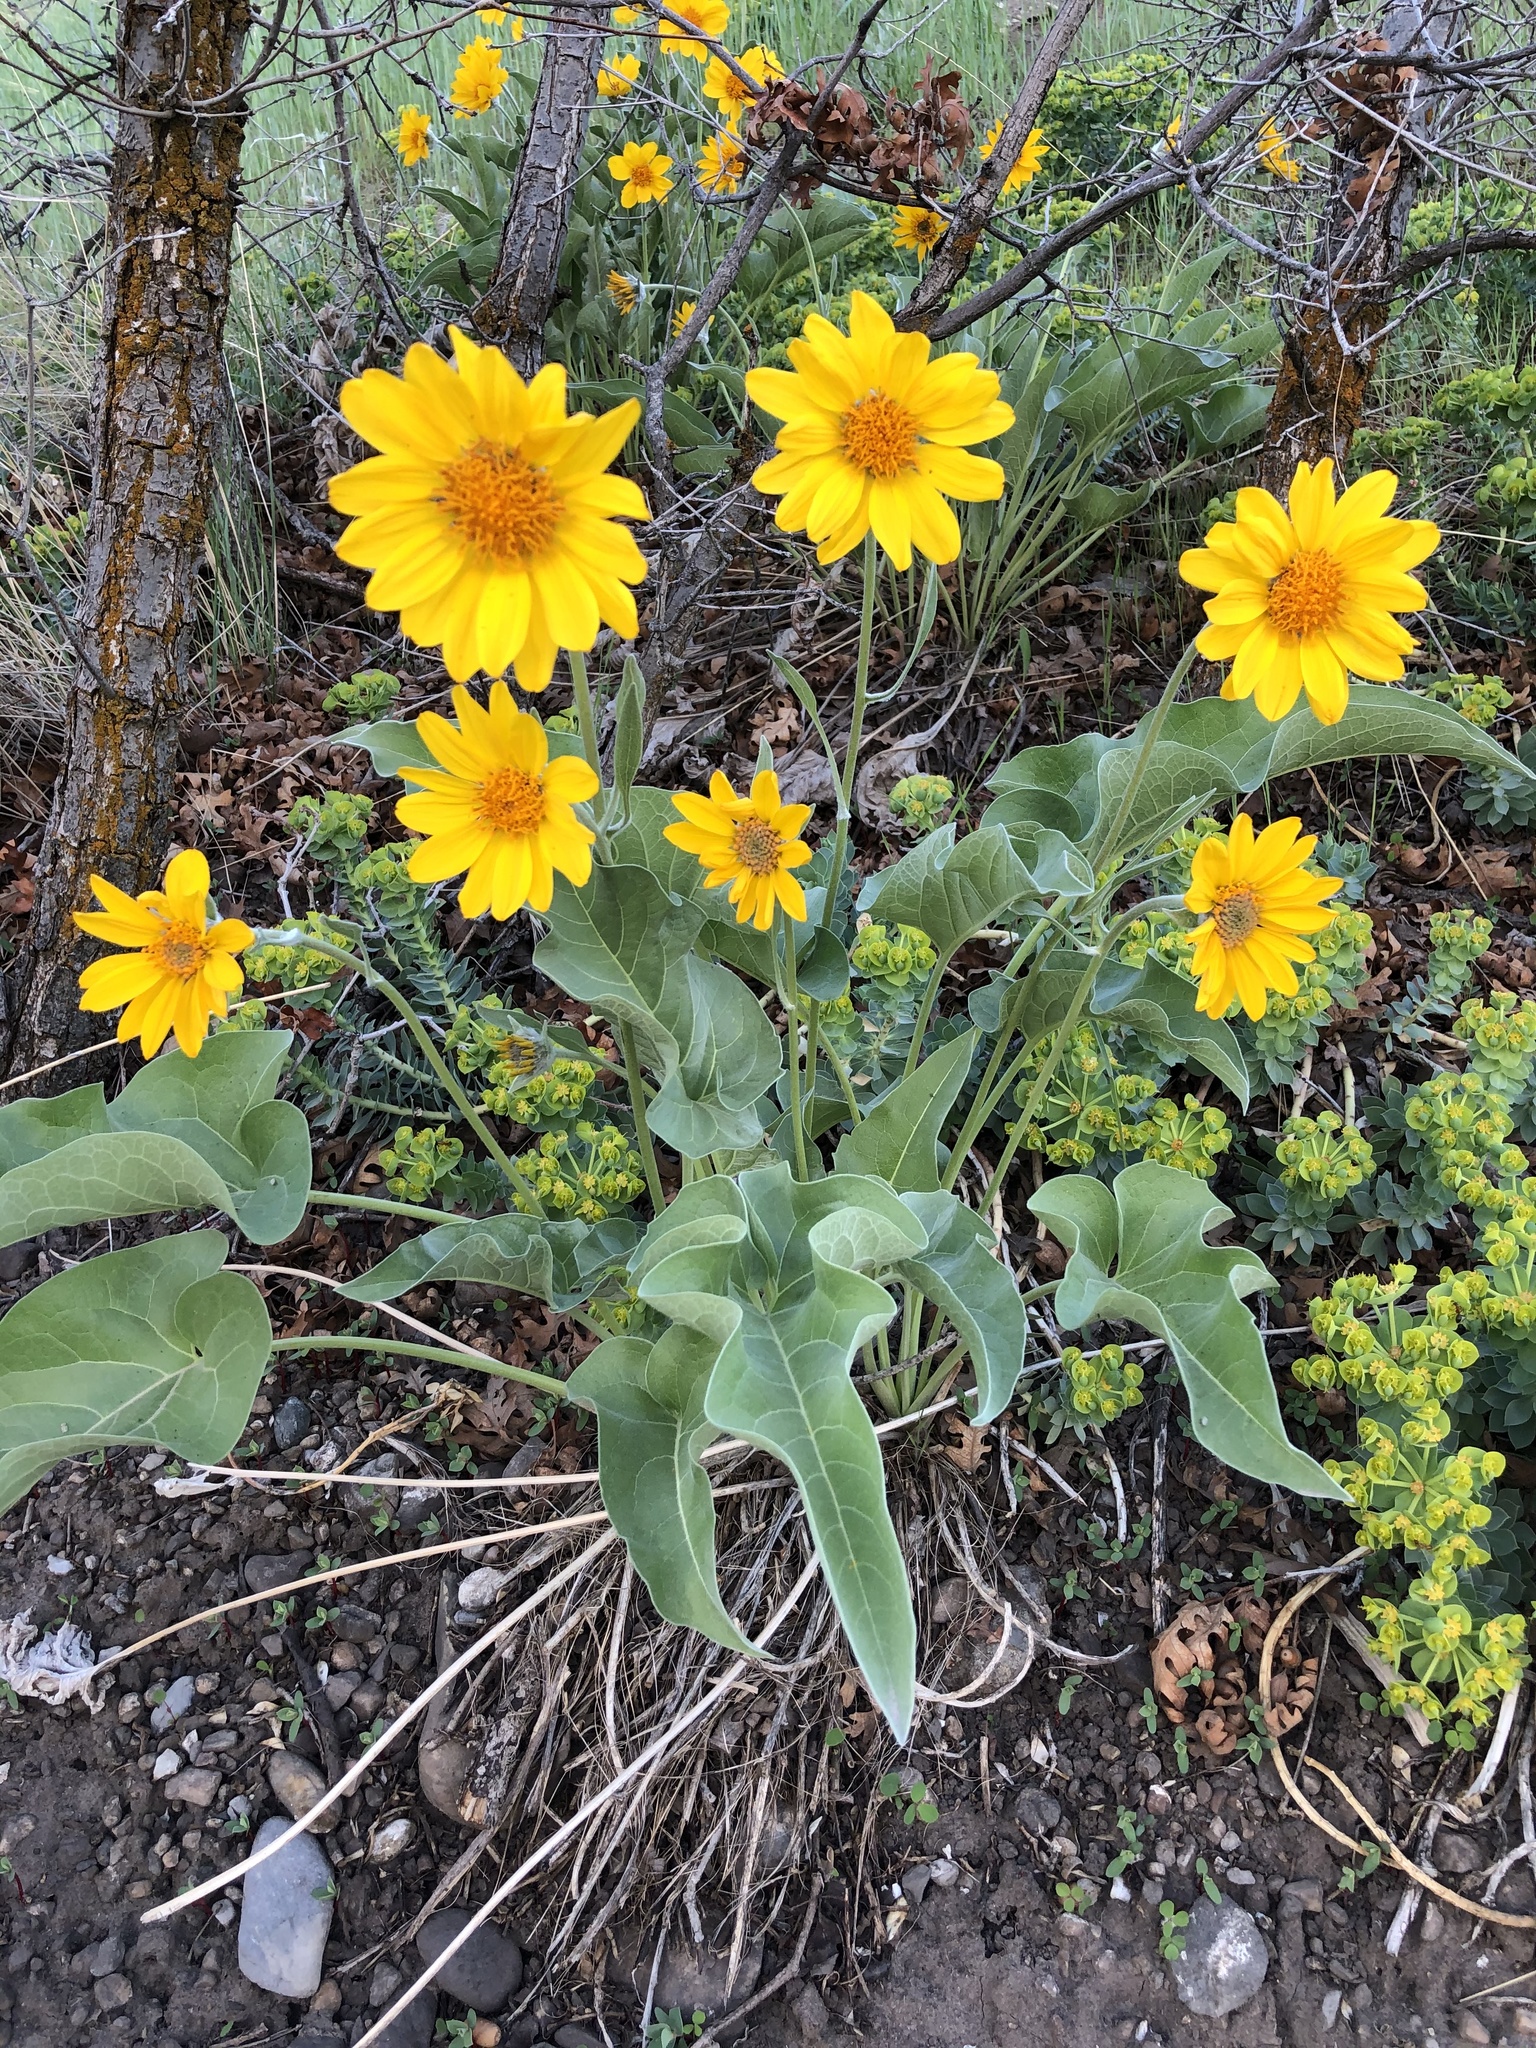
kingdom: Plantae
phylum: Tracheophyta
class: Magnoliopsida
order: Asterales
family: Asteraceae
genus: Wyethia
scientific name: Wyethia sagittata
